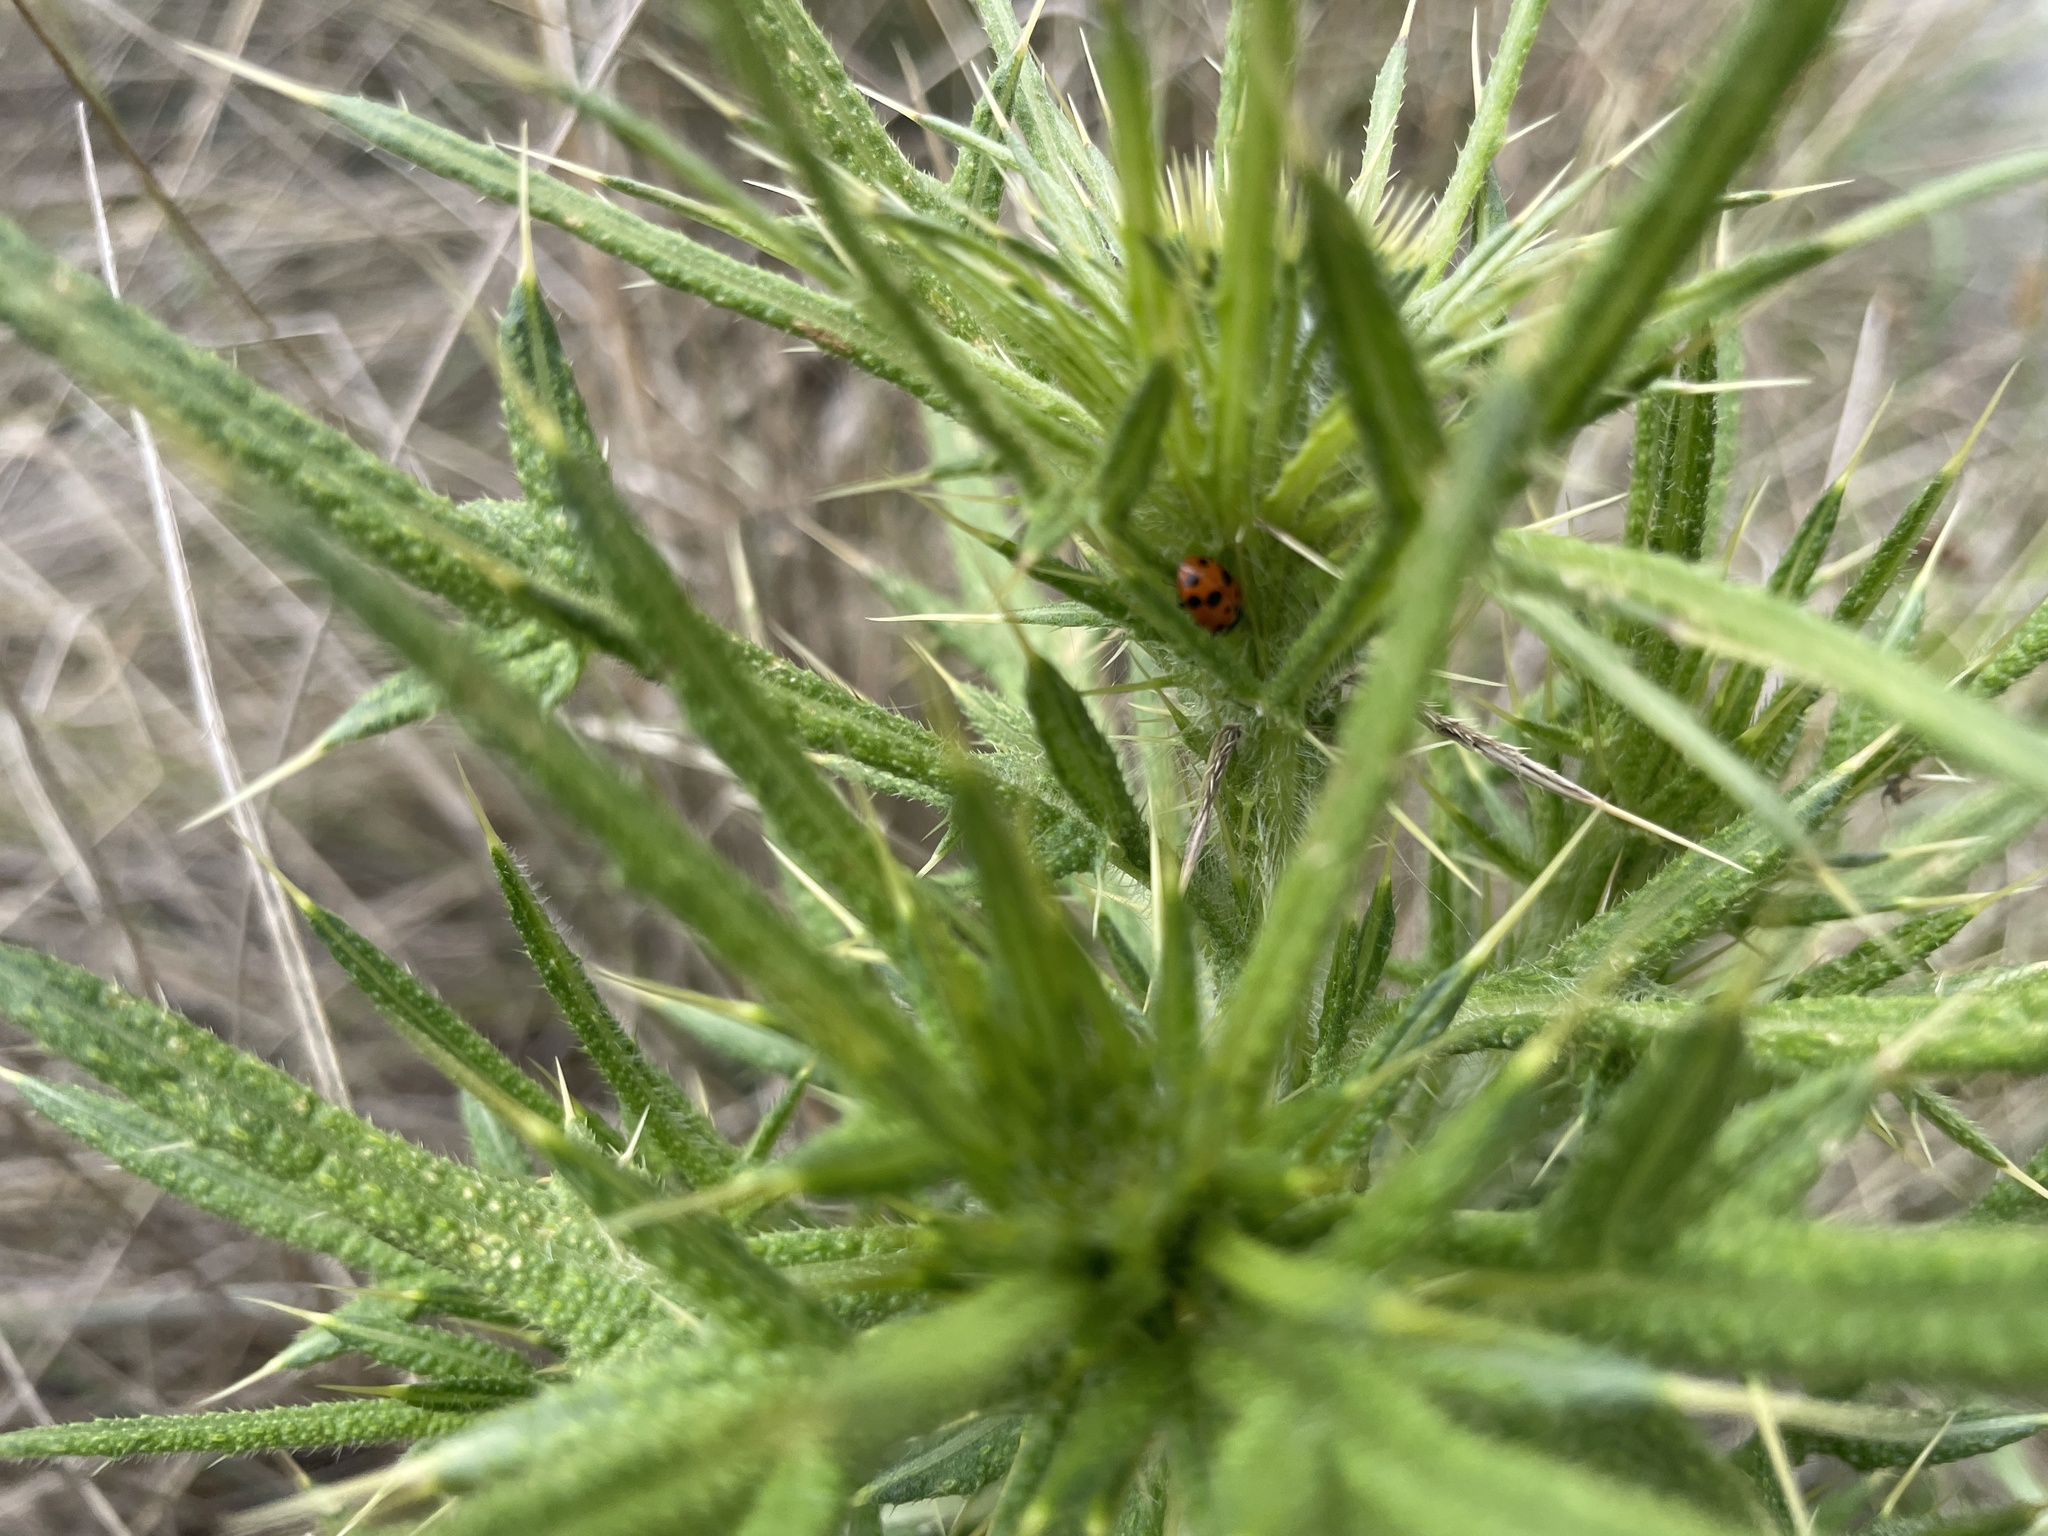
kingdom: Animalia
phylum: Arthropoda
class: Insecta
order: Coleoptera
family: Coccinellidae
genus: Hippodamia
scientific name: Hippodamia variegata
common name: Ladybird beetle
